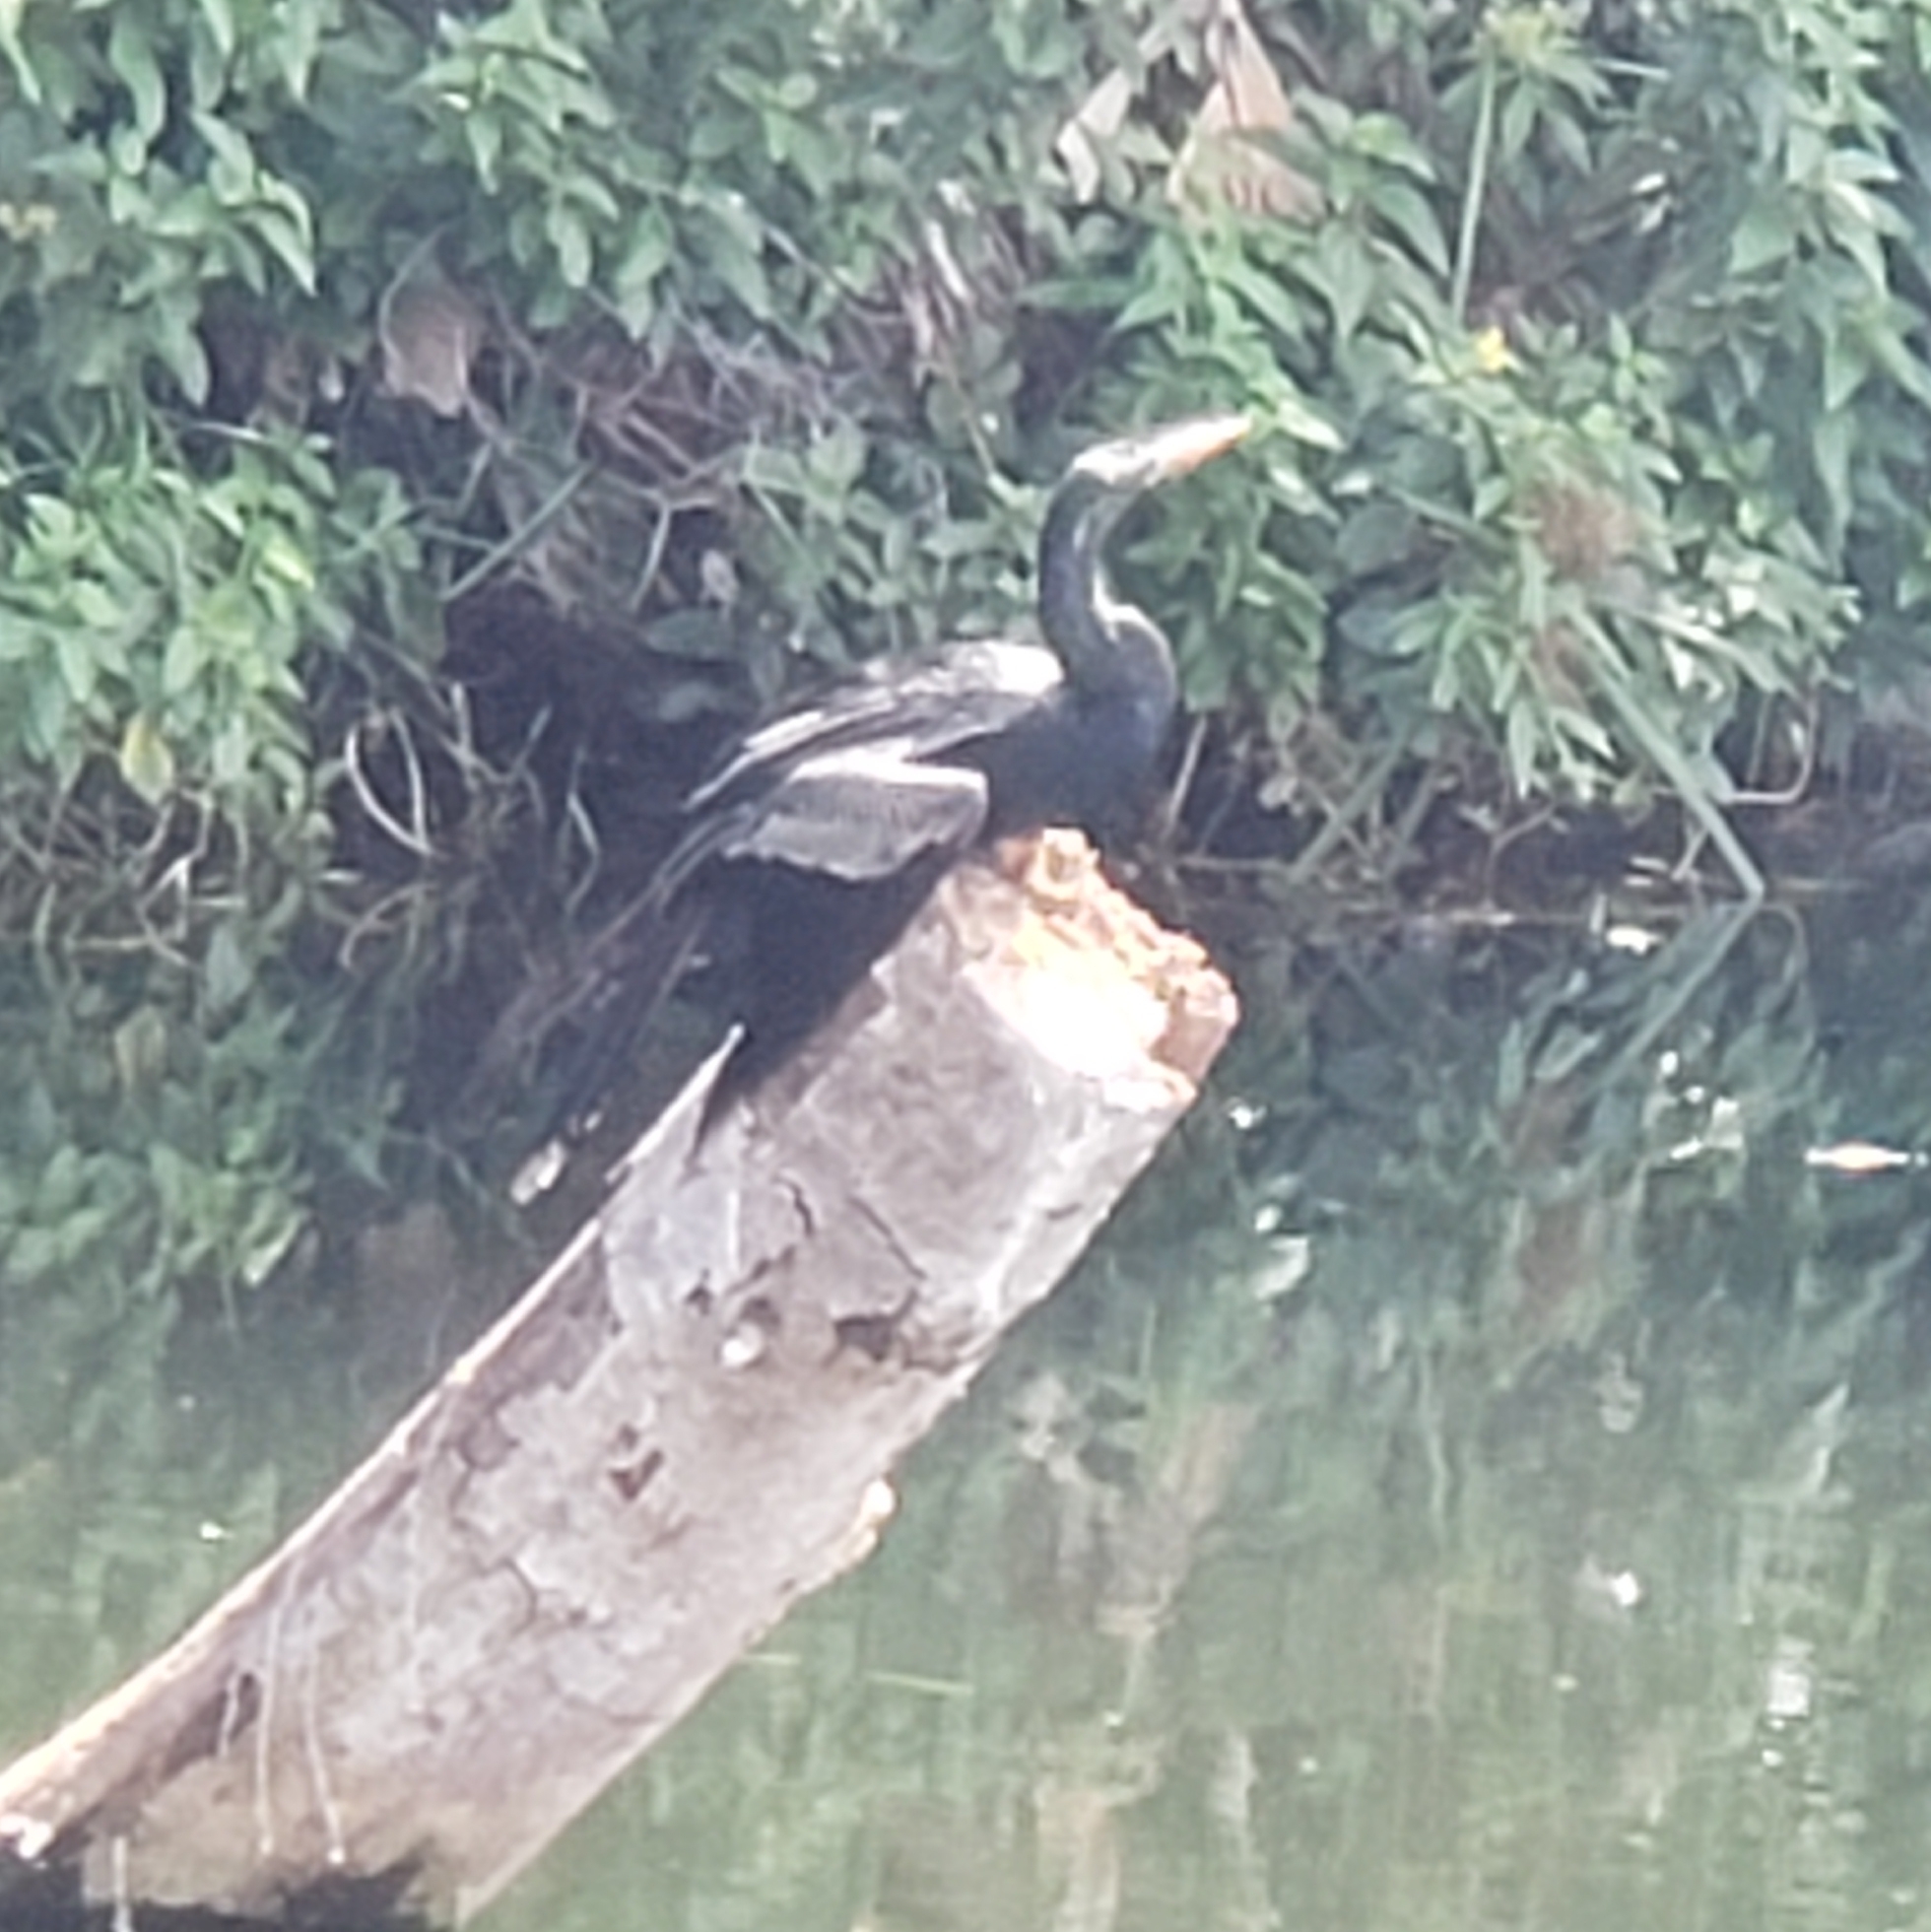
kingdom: Animalia
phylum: Chordata
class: Aves
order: Suliformes
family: Anhingidae
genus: Anhinga
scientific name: Anhinga anhinga
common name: Anhinga
